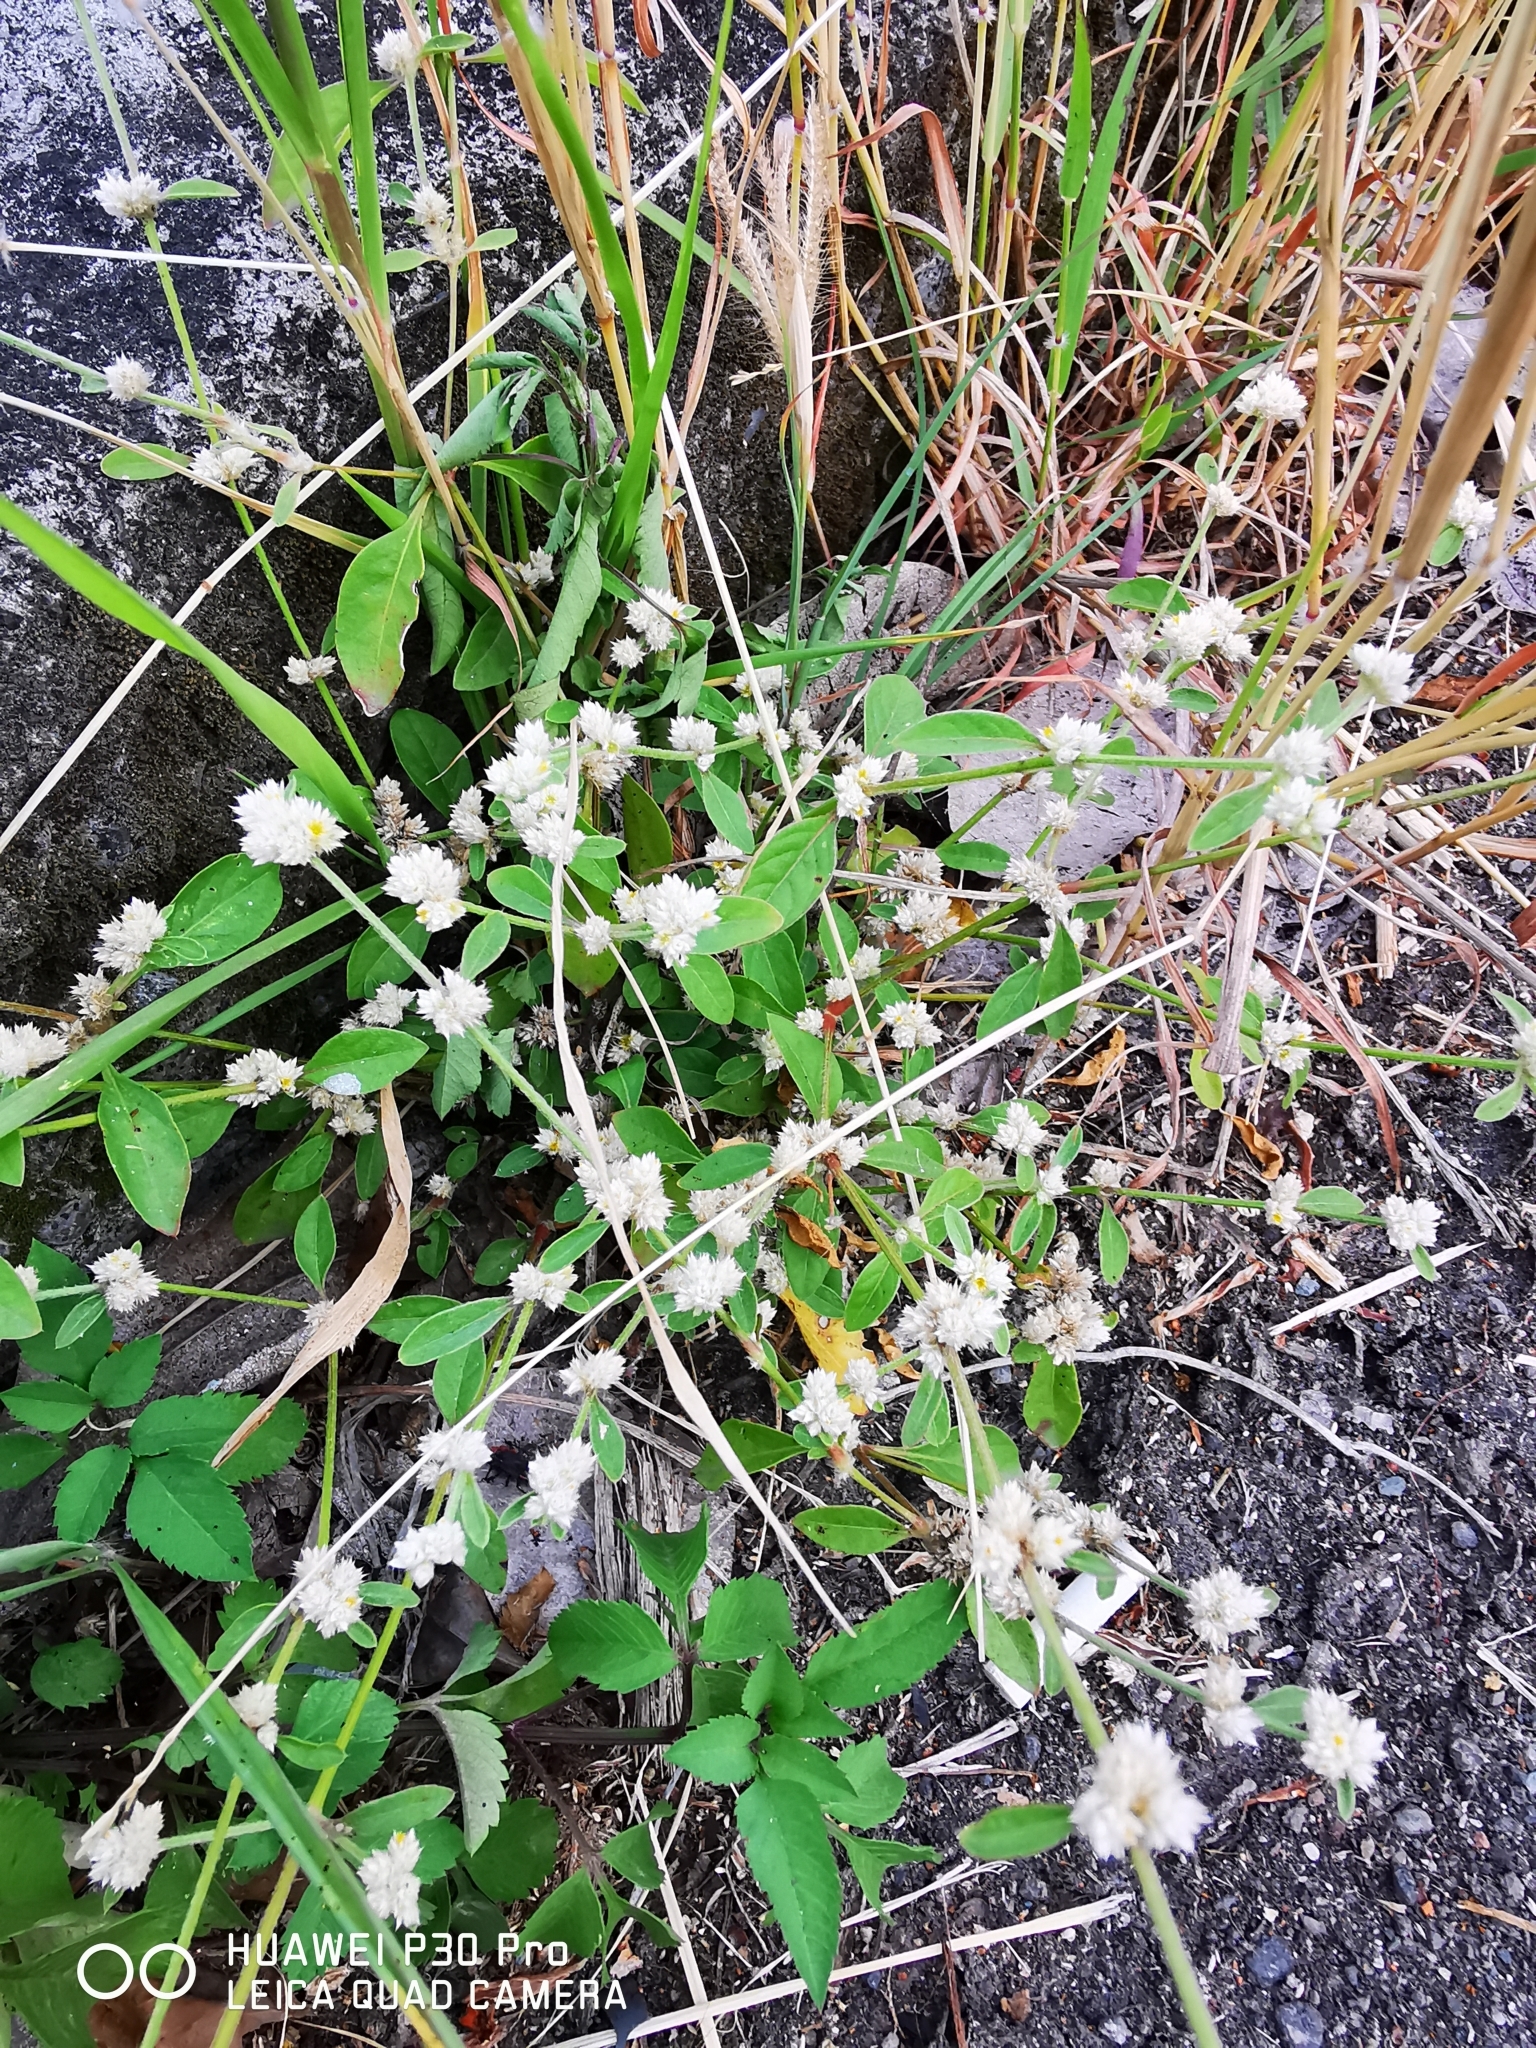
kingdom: Plantae
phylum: Tracheophyta
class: Magnoliopsida
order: Caryophyllales
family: Amaranthaceae
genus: Alternanthera
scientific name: Alternanthera bettzickiana
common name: Calico-plant
